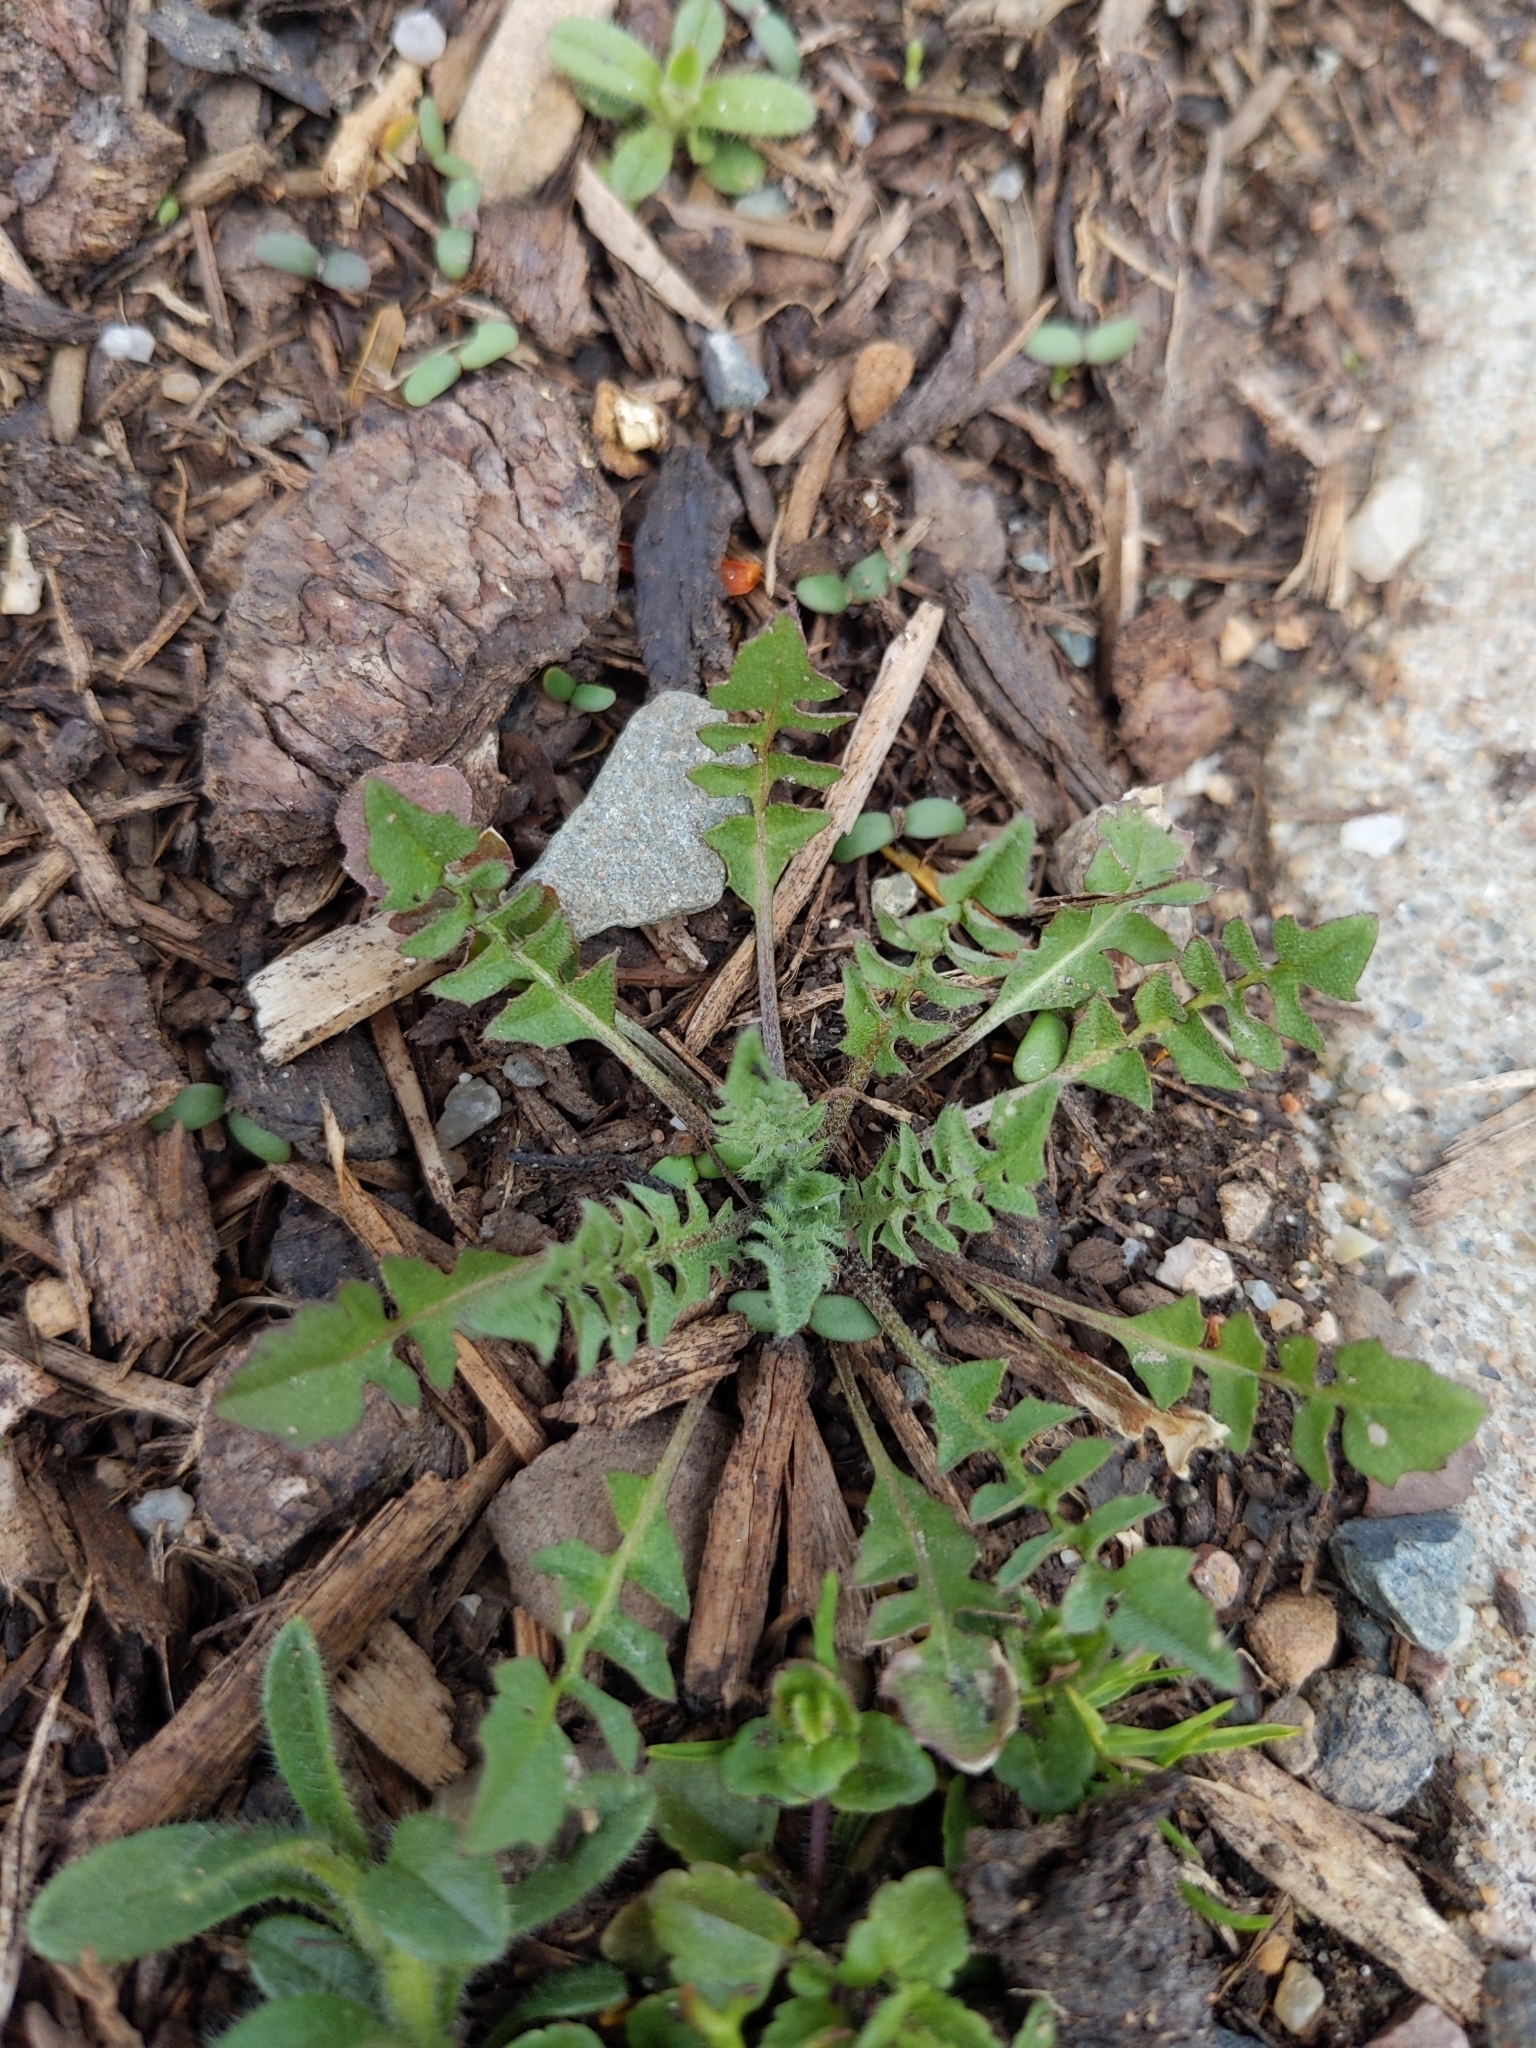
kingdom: Plantae
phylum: Tracheophyta
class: Magnoliopsida
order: Brassicales
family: Brassicaceae
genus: Capsella
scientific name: Capsella bursa-pastoris
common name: Shepherd's purse
